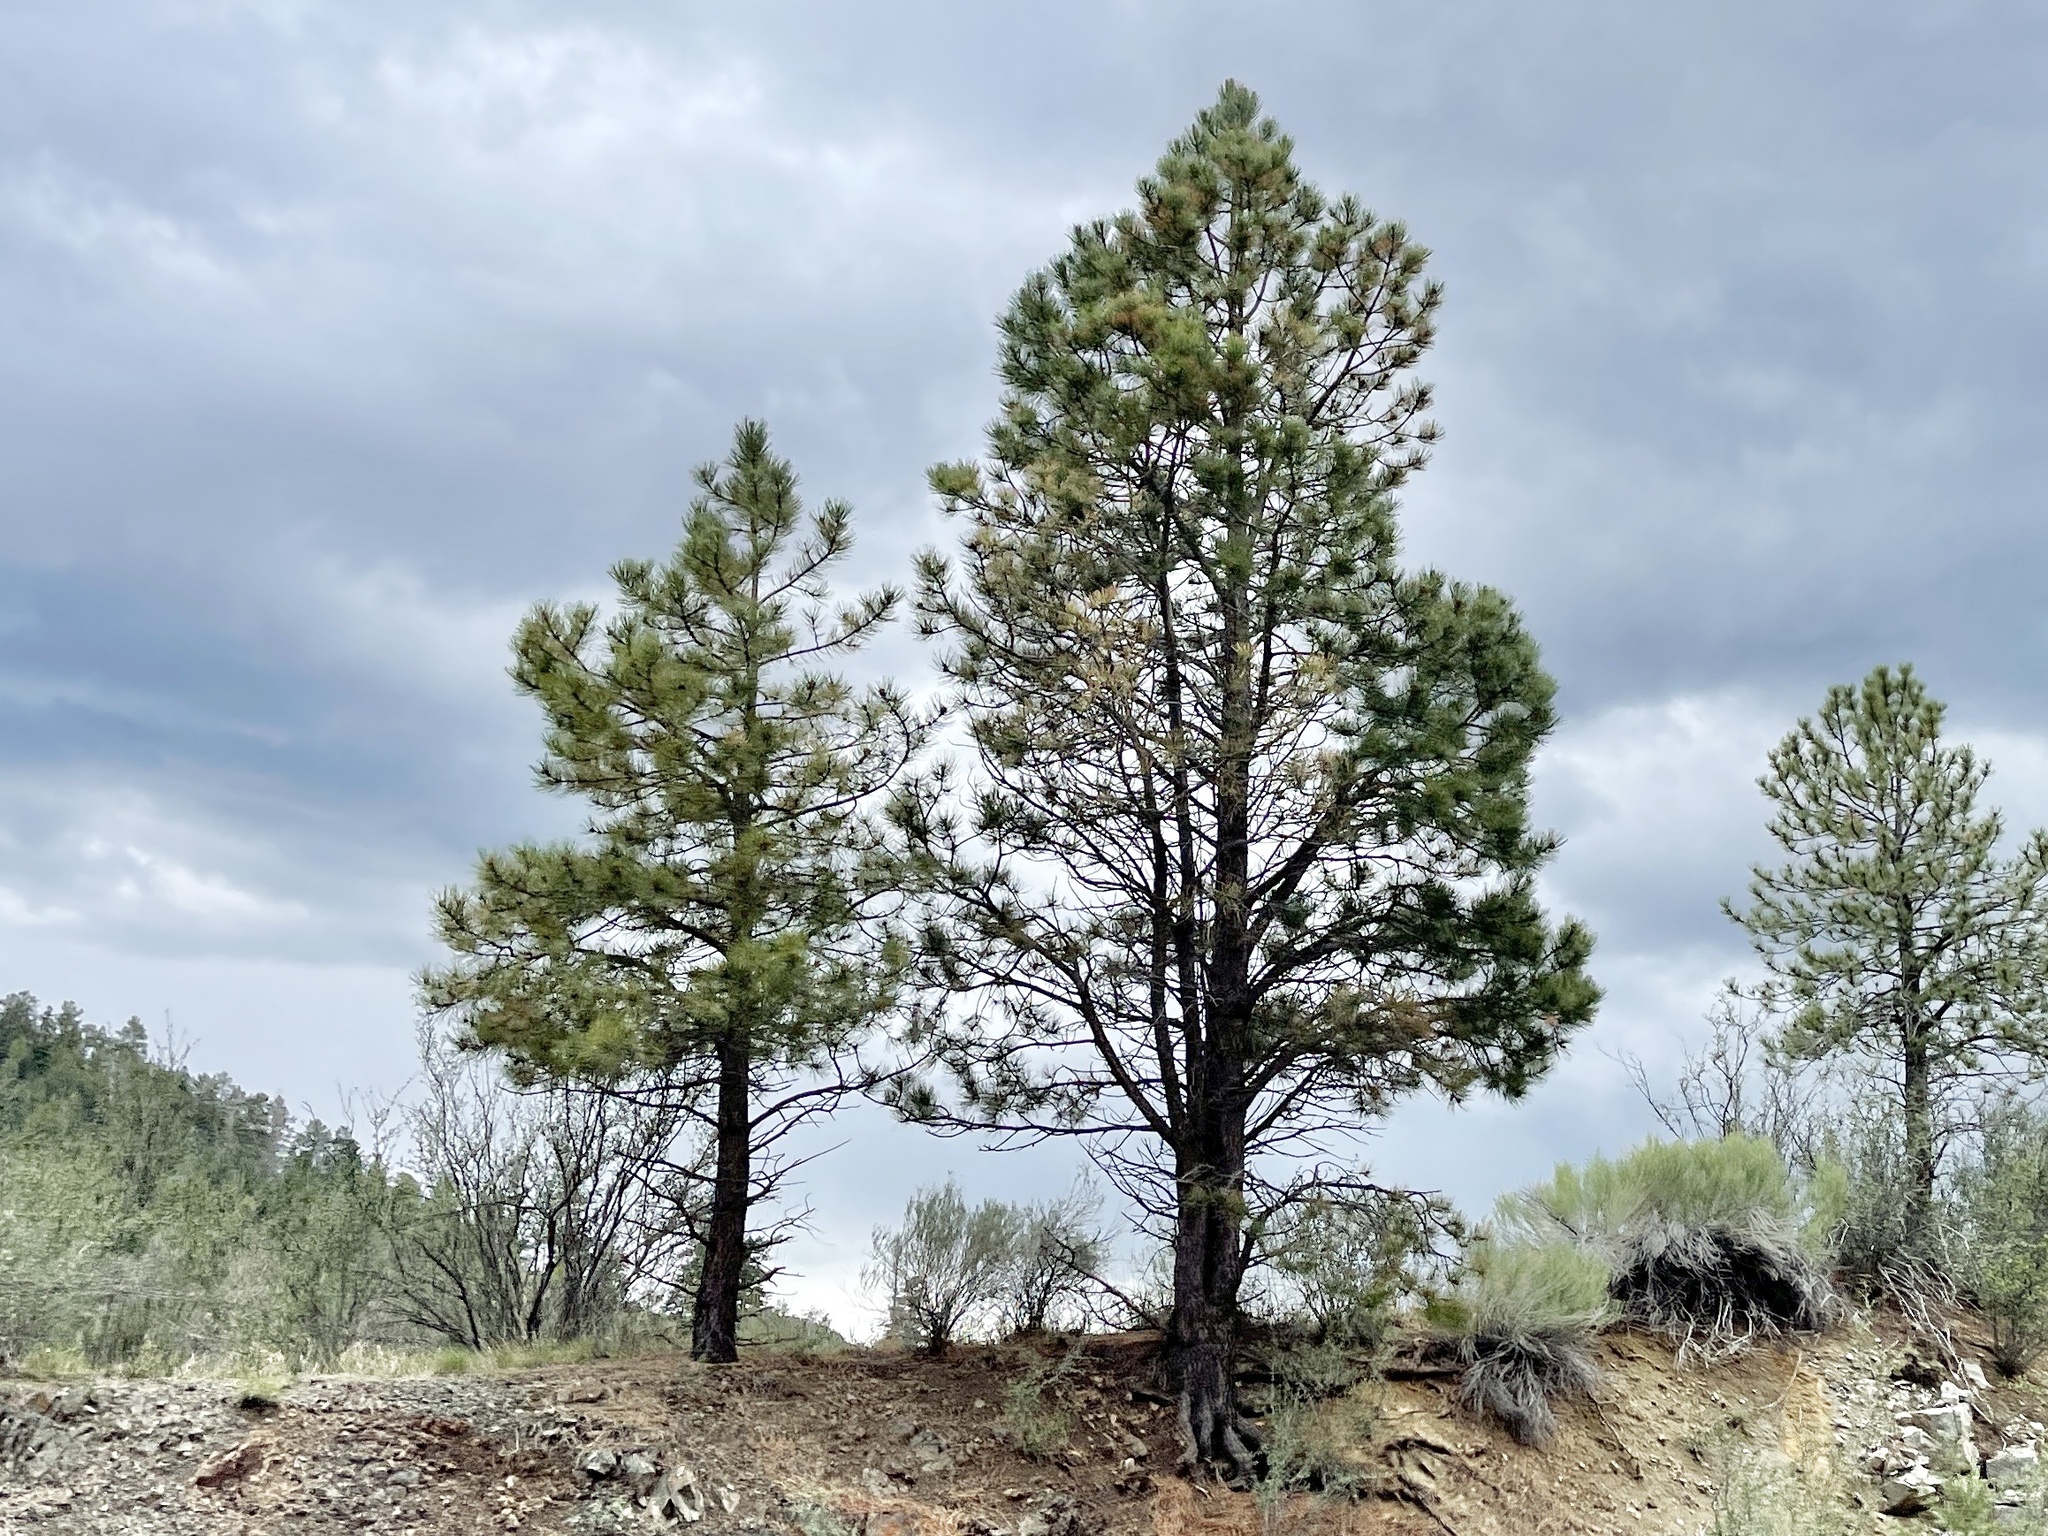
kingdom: Plantae
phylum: Tracheophyta
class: Pinopsida
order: Pinales
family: Pinaceae
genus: Pinus
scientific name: Pinus ponderosa
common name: Western yellow-pine
